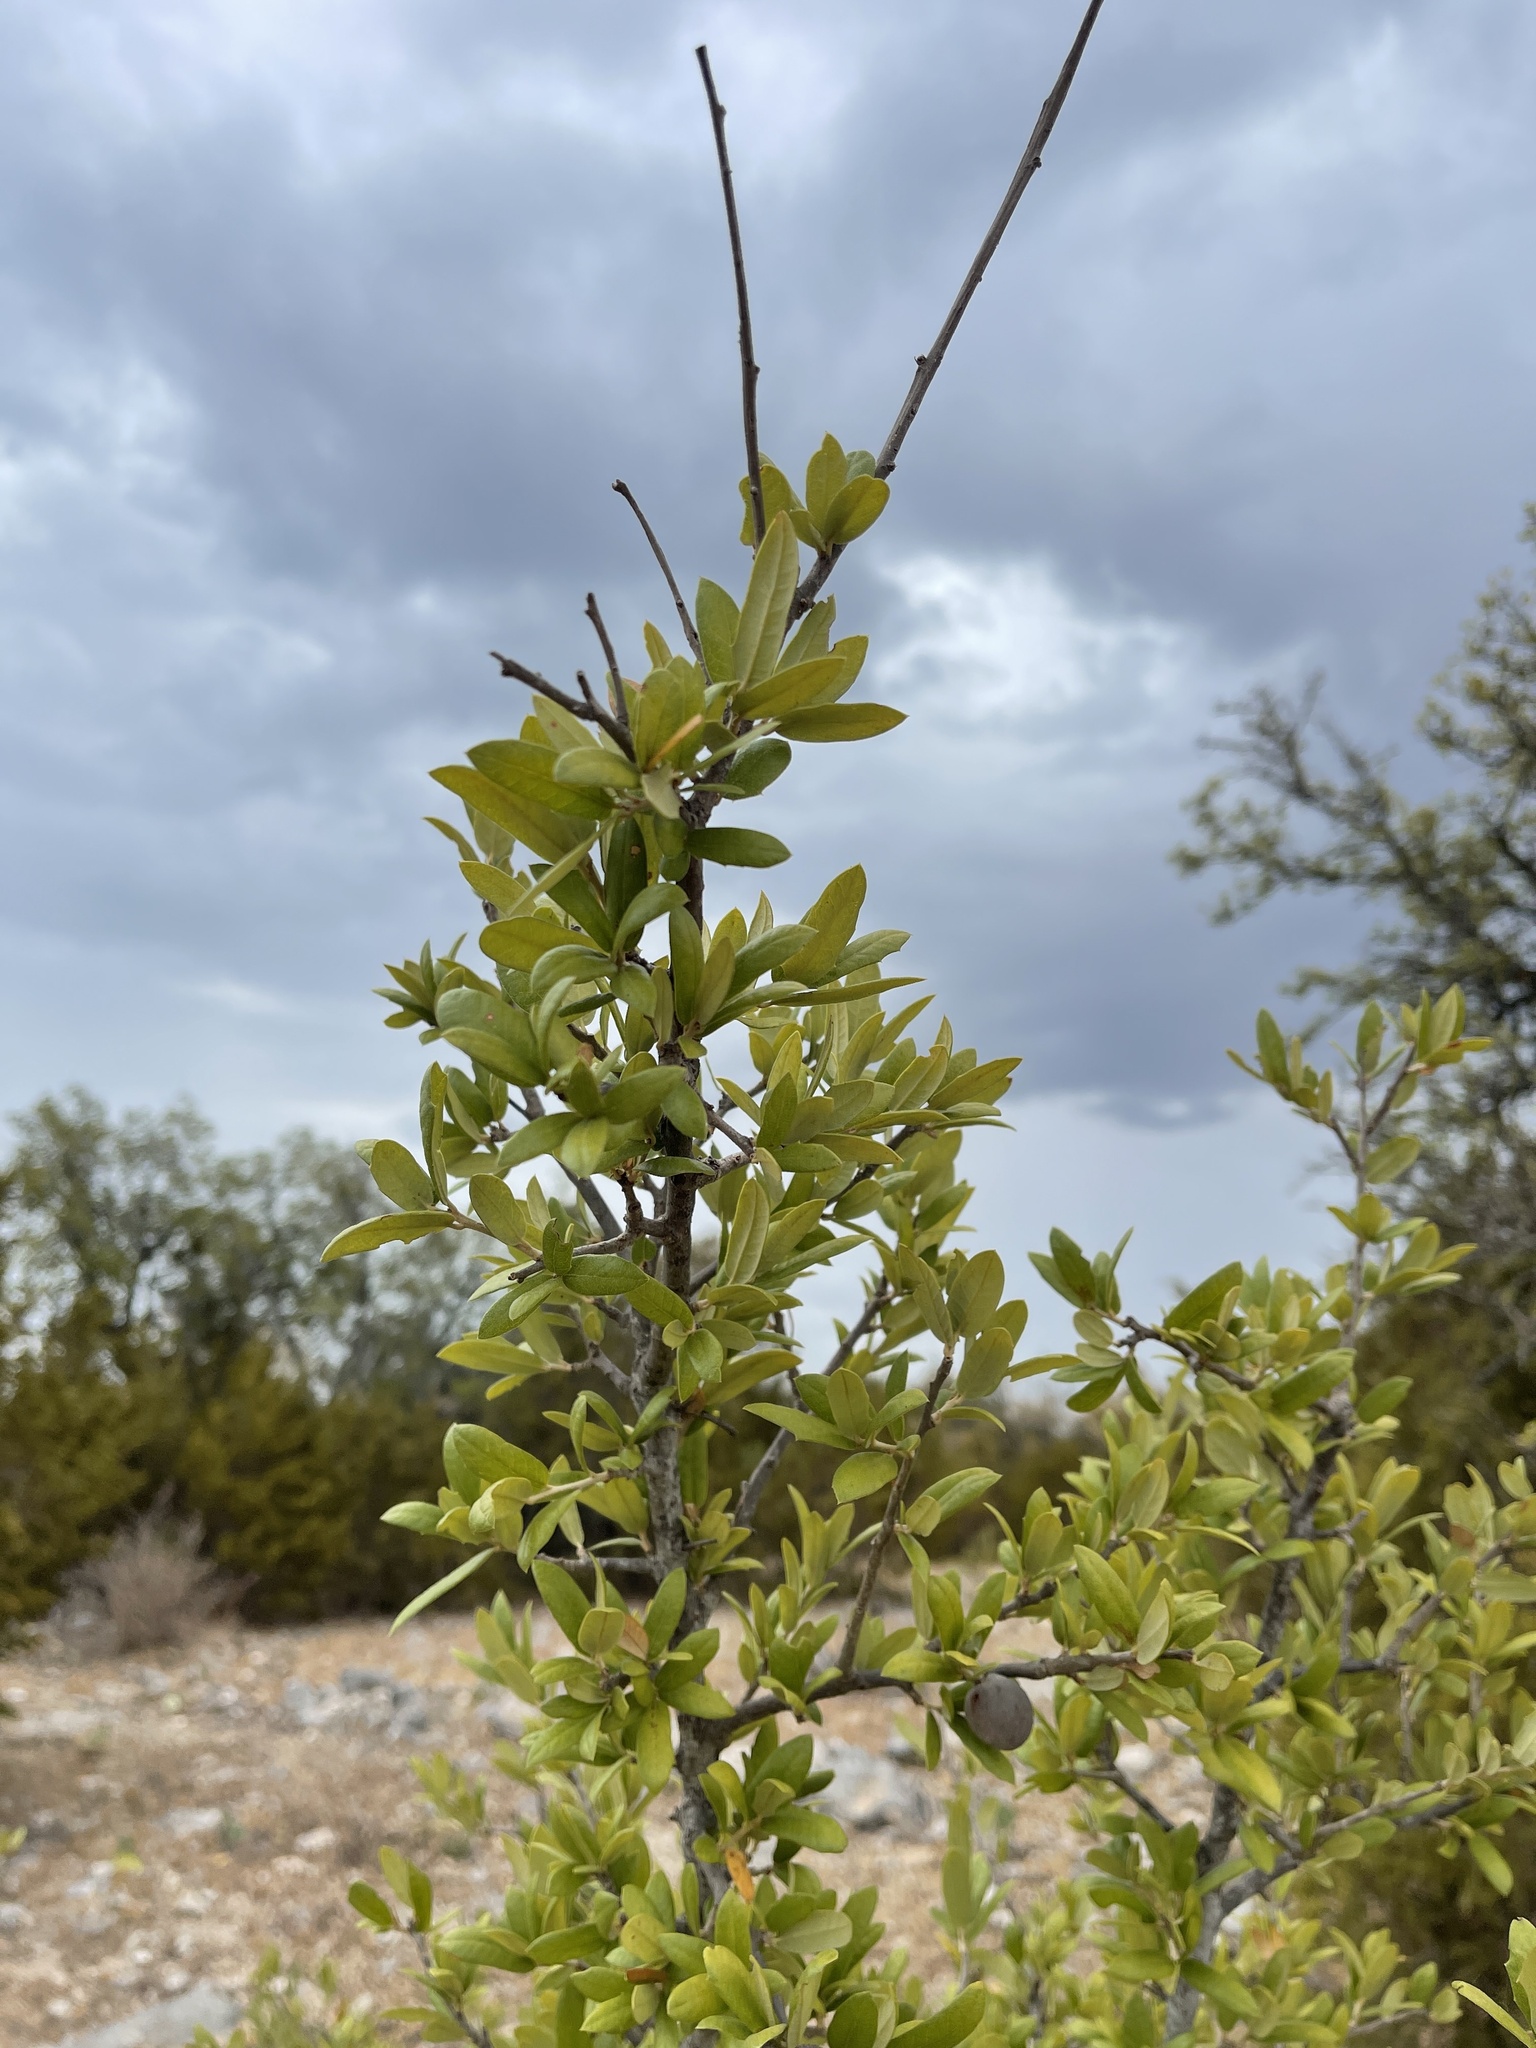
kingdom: Plantae
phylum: Tracheophyta
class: Magnoliopsida
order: Fagales
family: Fagaceae
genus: Quercus
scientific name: Quercus fusiformis
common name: Texas live oak
